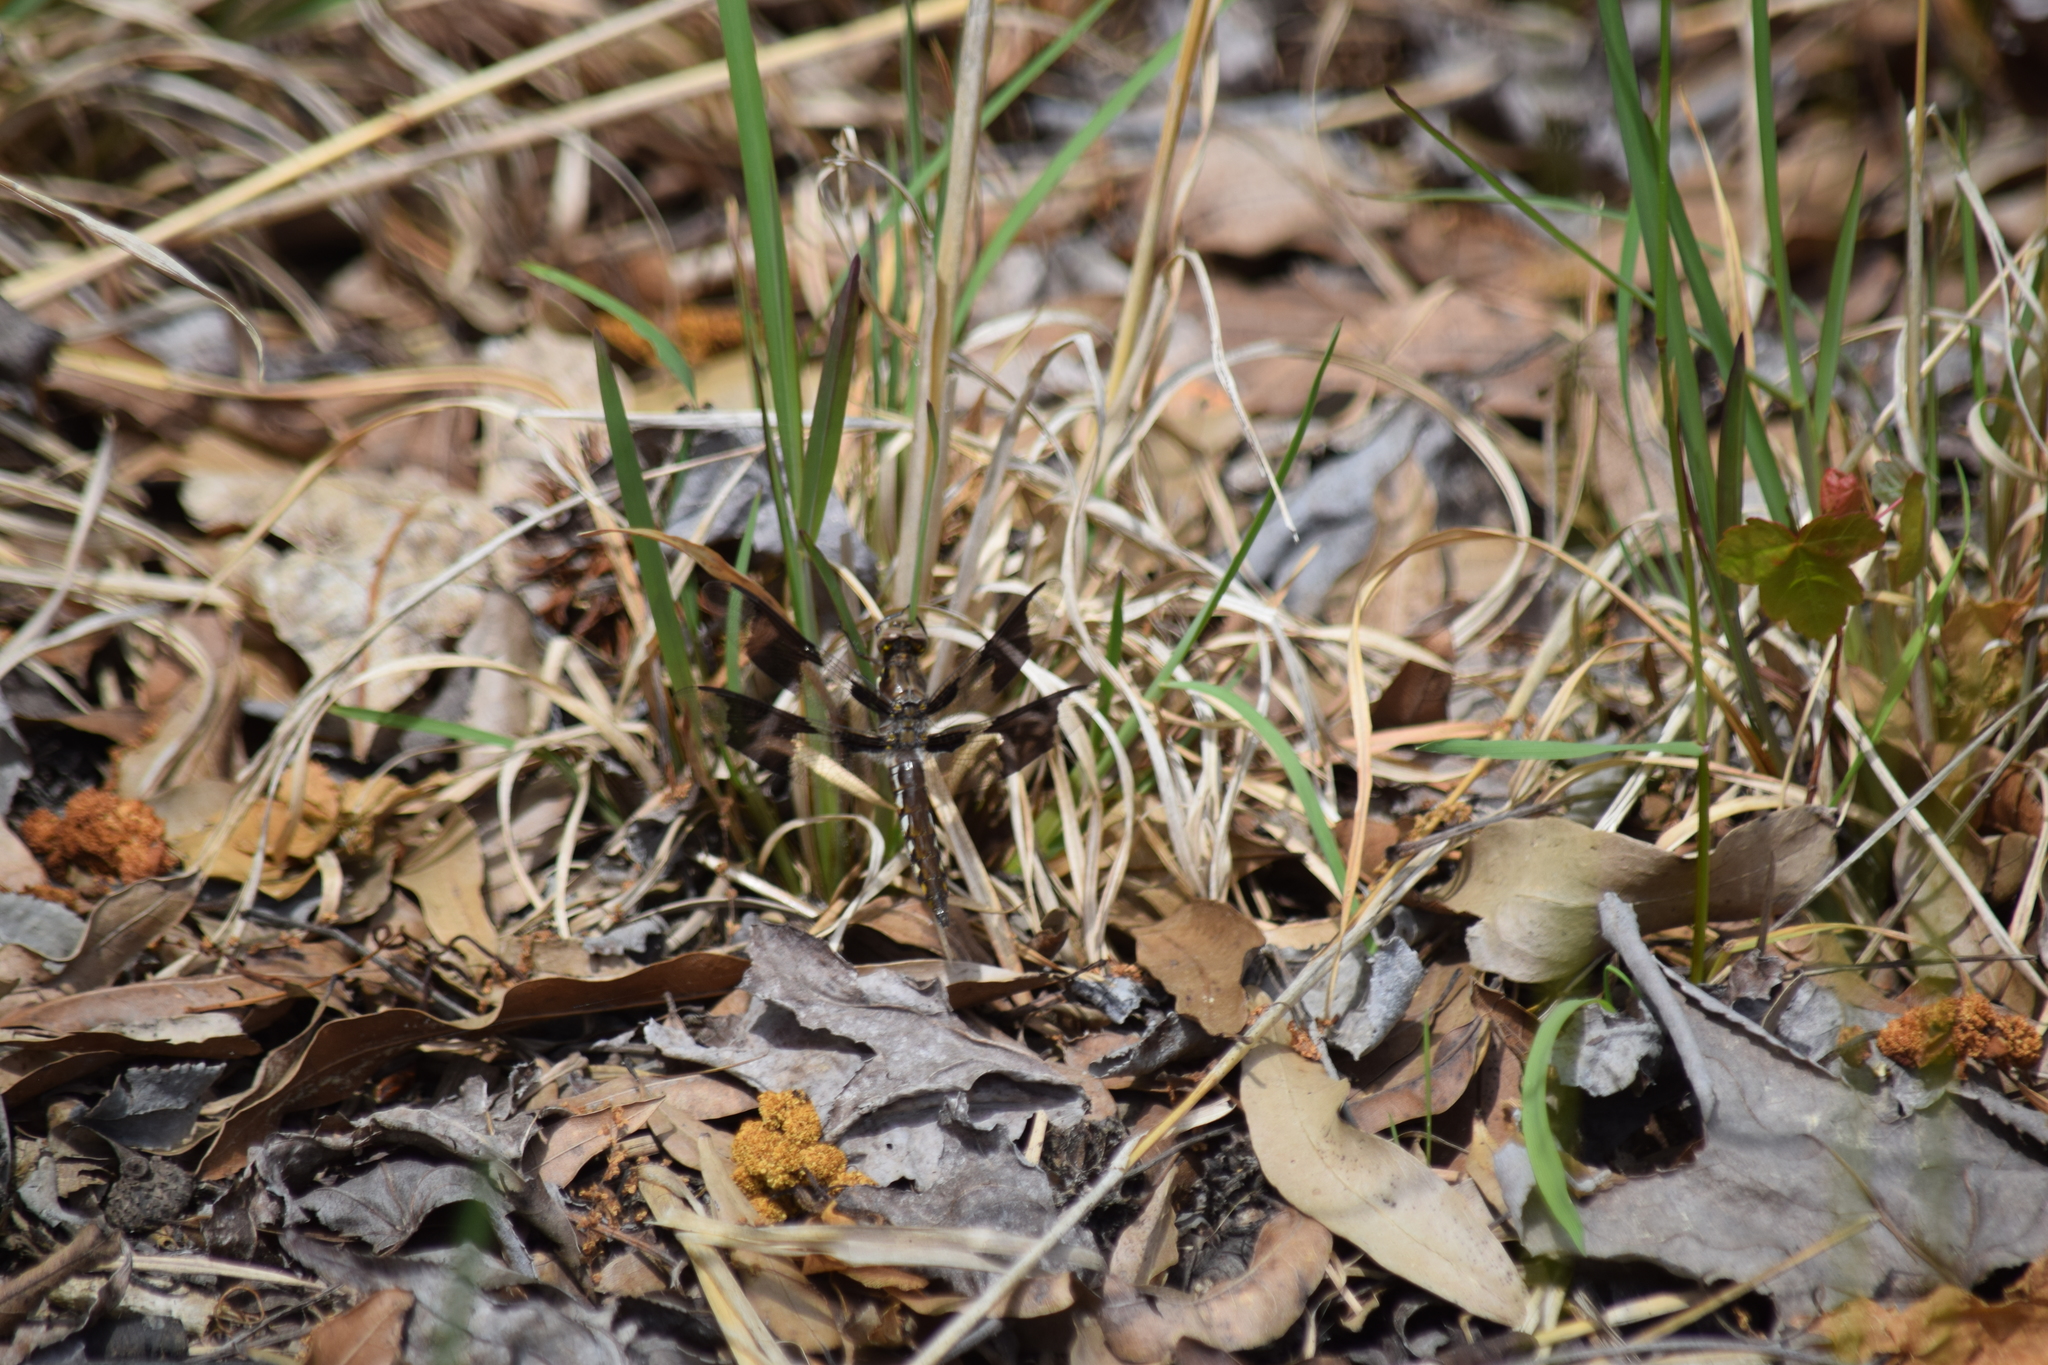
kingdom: Animalia
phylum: Arthropoda
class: Insecta
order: Odonata
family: Libellulidae
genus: Plathemis
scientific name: Plathemis lydia
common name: Common whitetail
